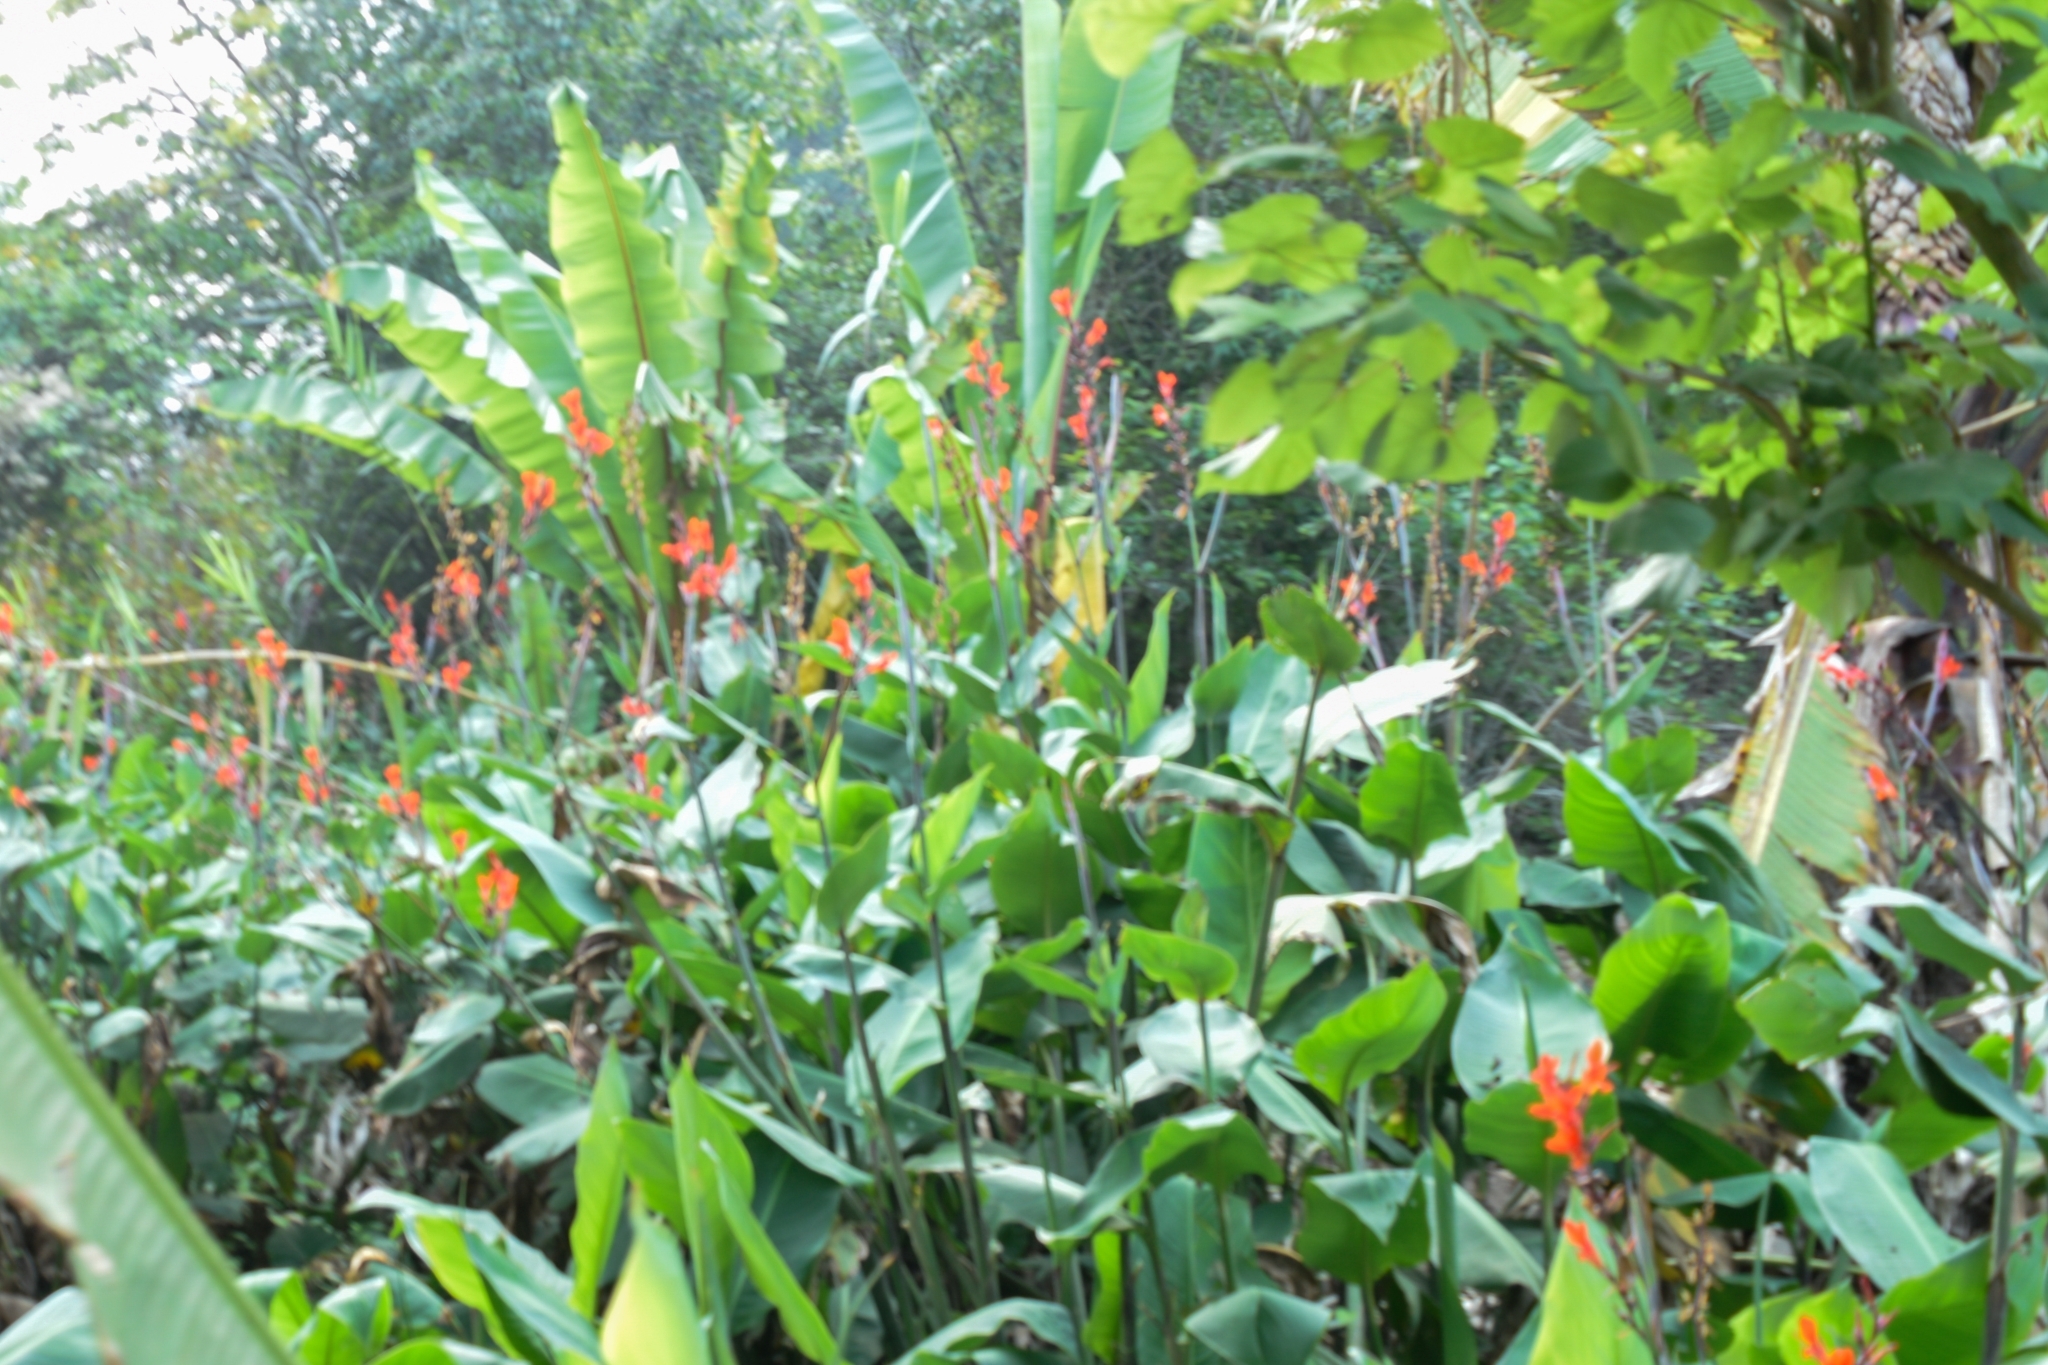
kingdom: Plantae
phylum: Tracheophyta
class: Liliopsida
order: Zingiberales
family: Cannaceae
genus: Canna
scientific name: Canna indica
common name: Indian shot
